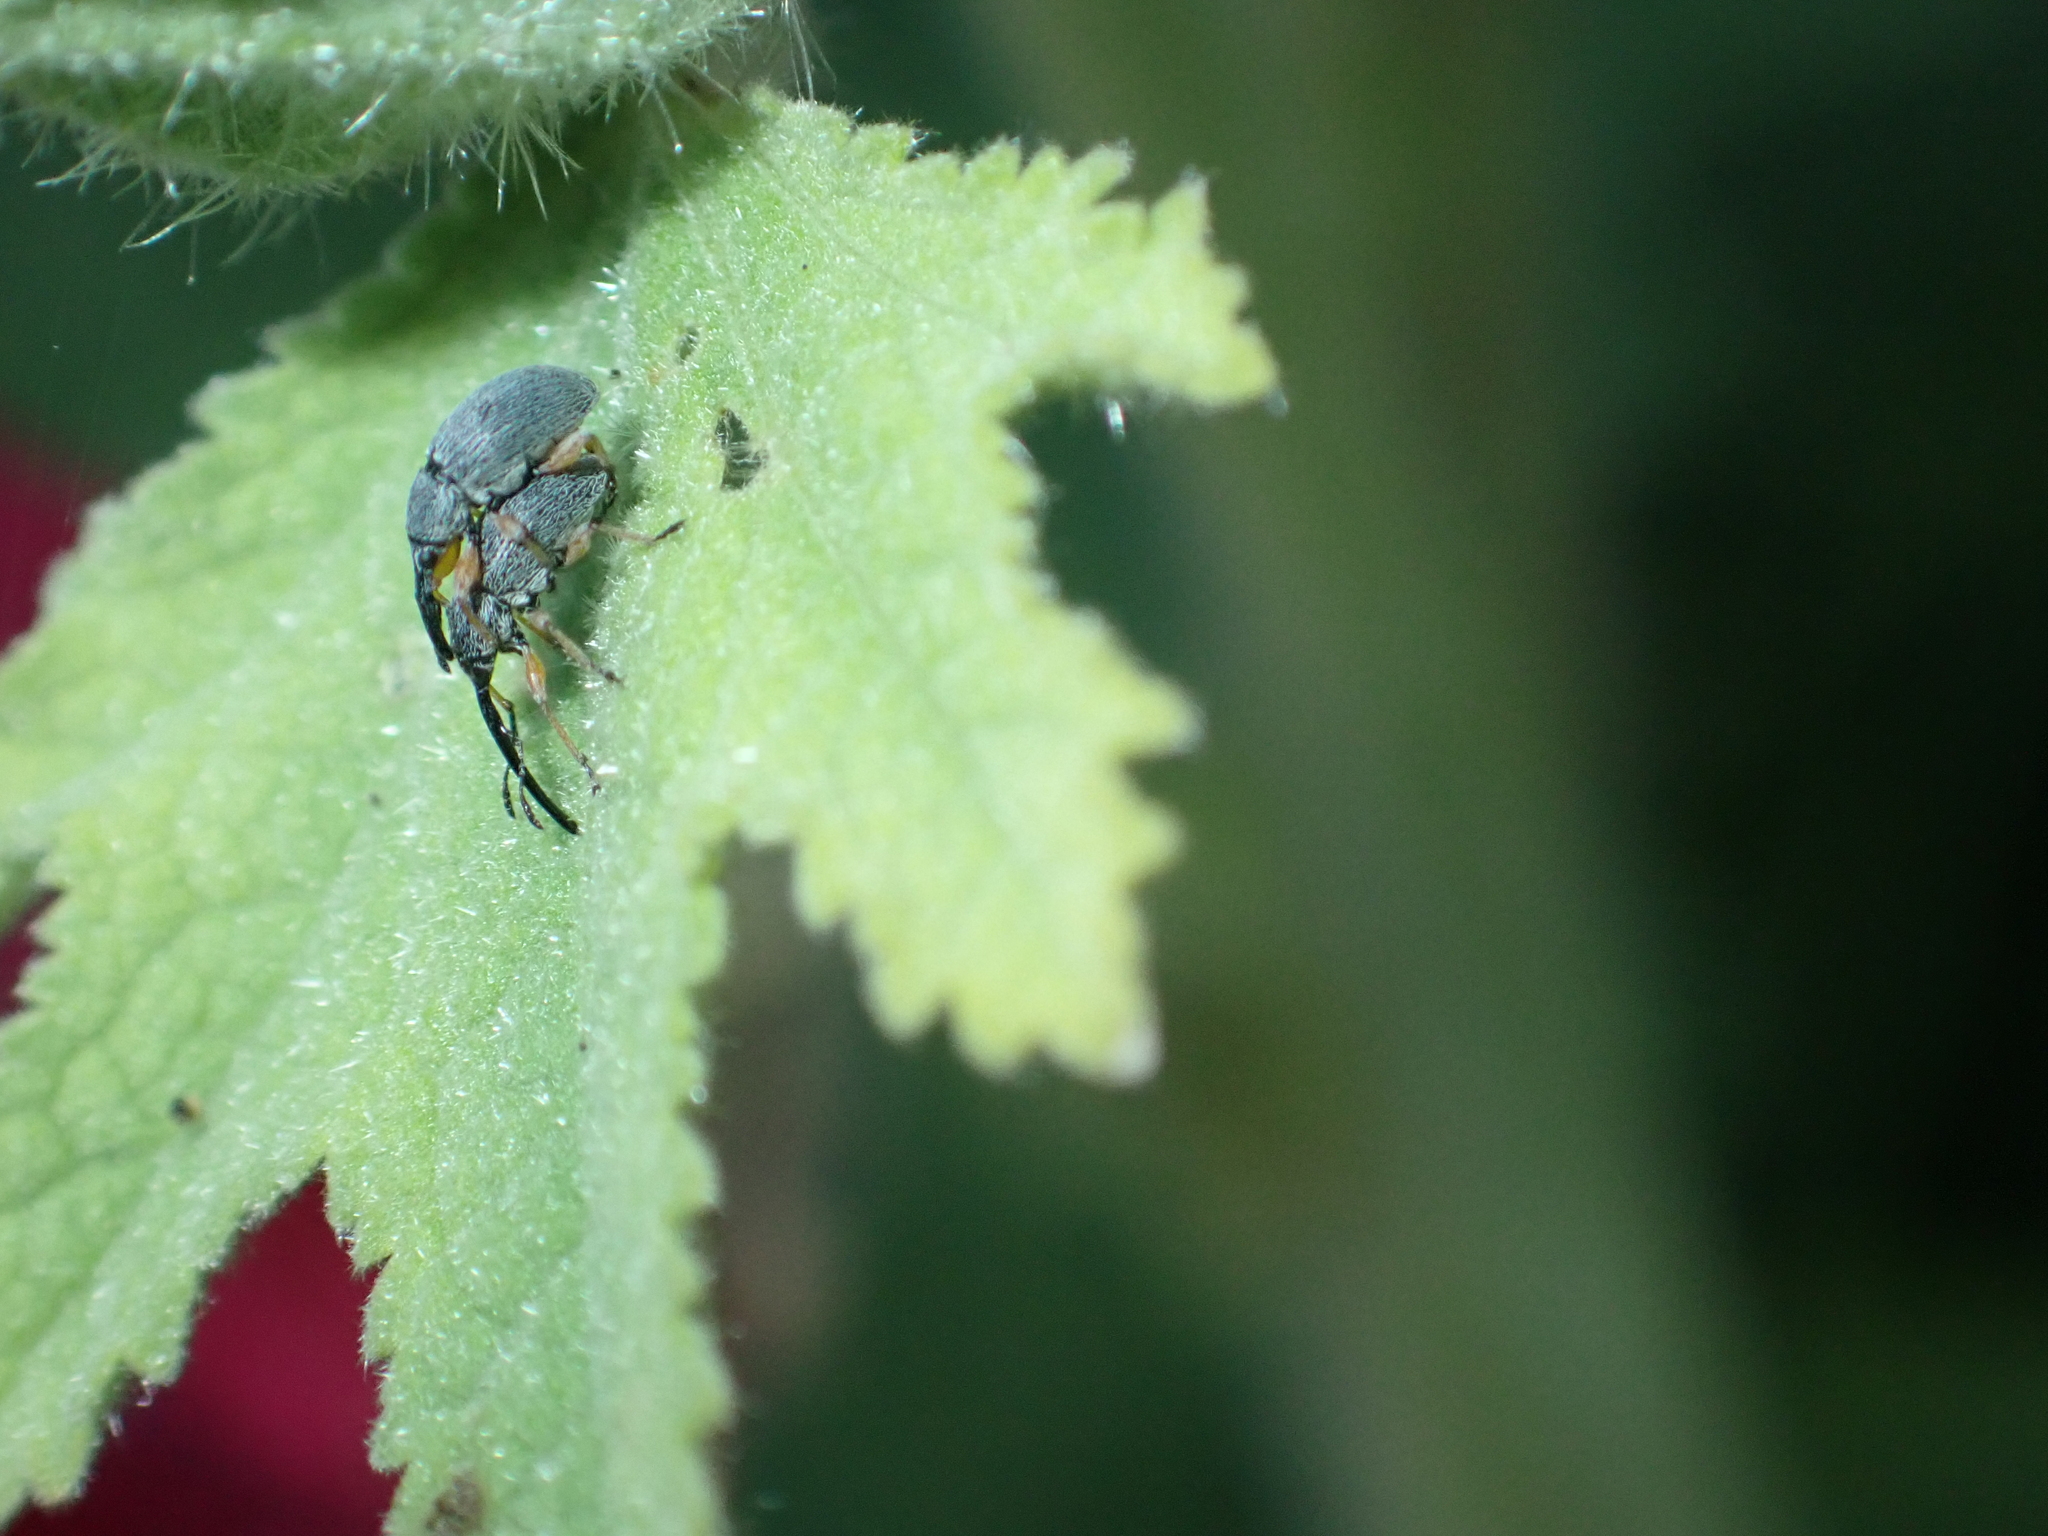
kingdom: Animalia
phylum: Arthropoda
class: Insecta
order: Coleoptera
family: Brentidae
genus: Rhopalapion
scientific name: Rhopalapion longirostre
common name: Hollyhock weevil
